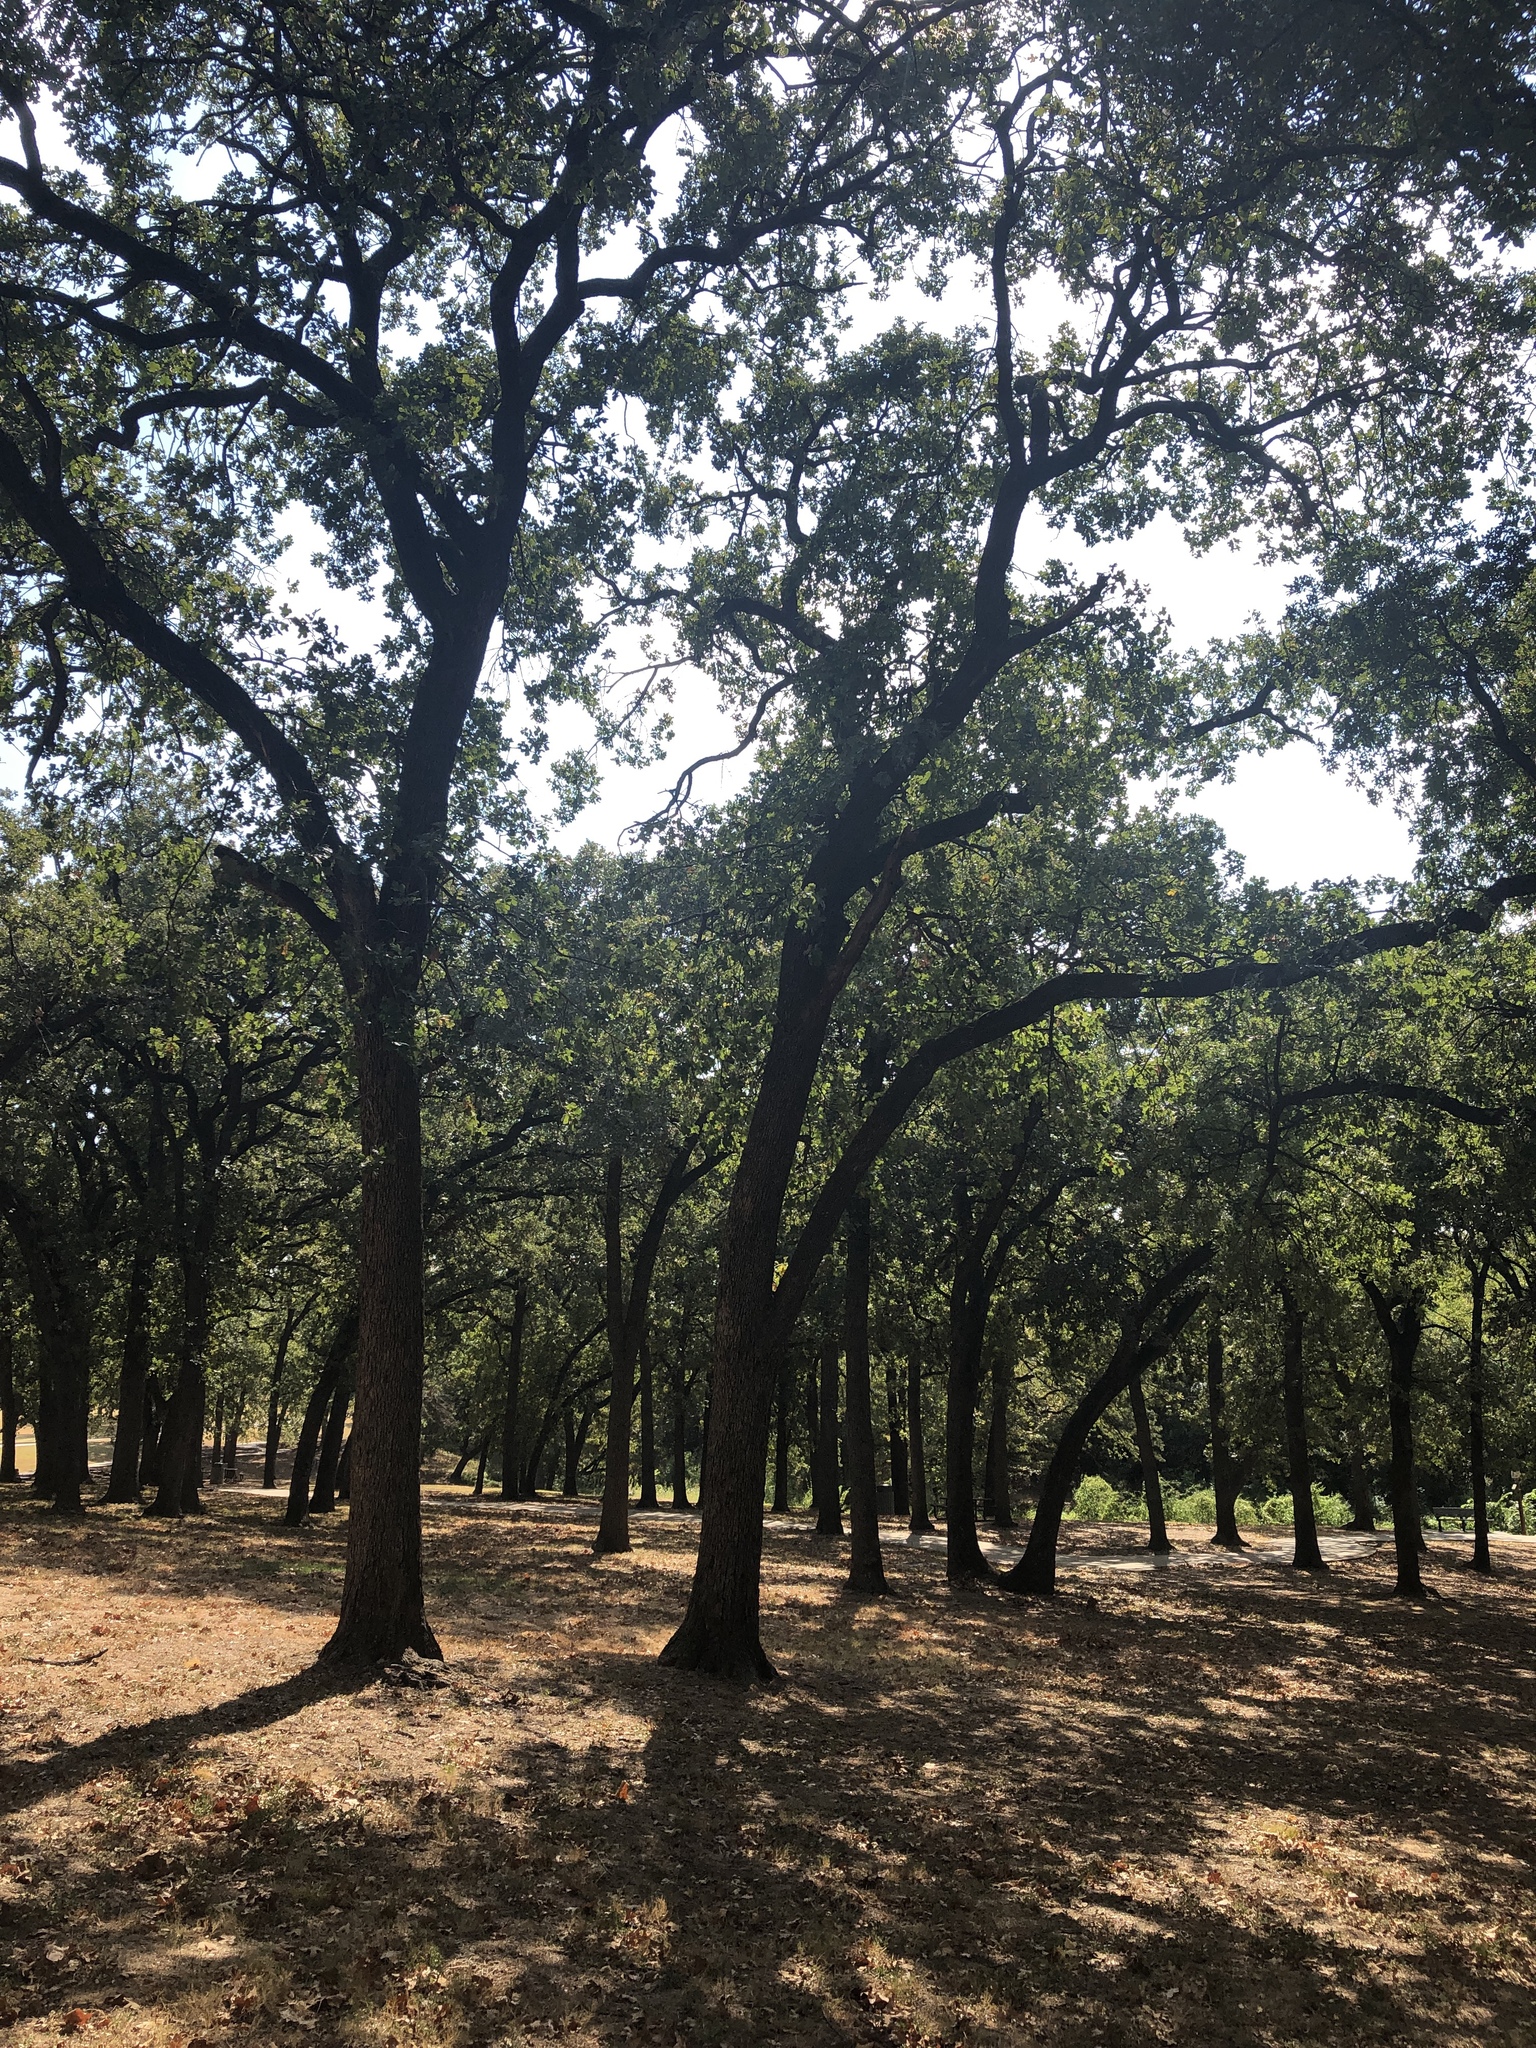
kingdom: Plantae
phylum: Tracheophyta
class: Magnoliopsida
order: Fagales
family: Fagaceae
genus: Quercus
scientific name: Quercus stellata
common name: Post oak
